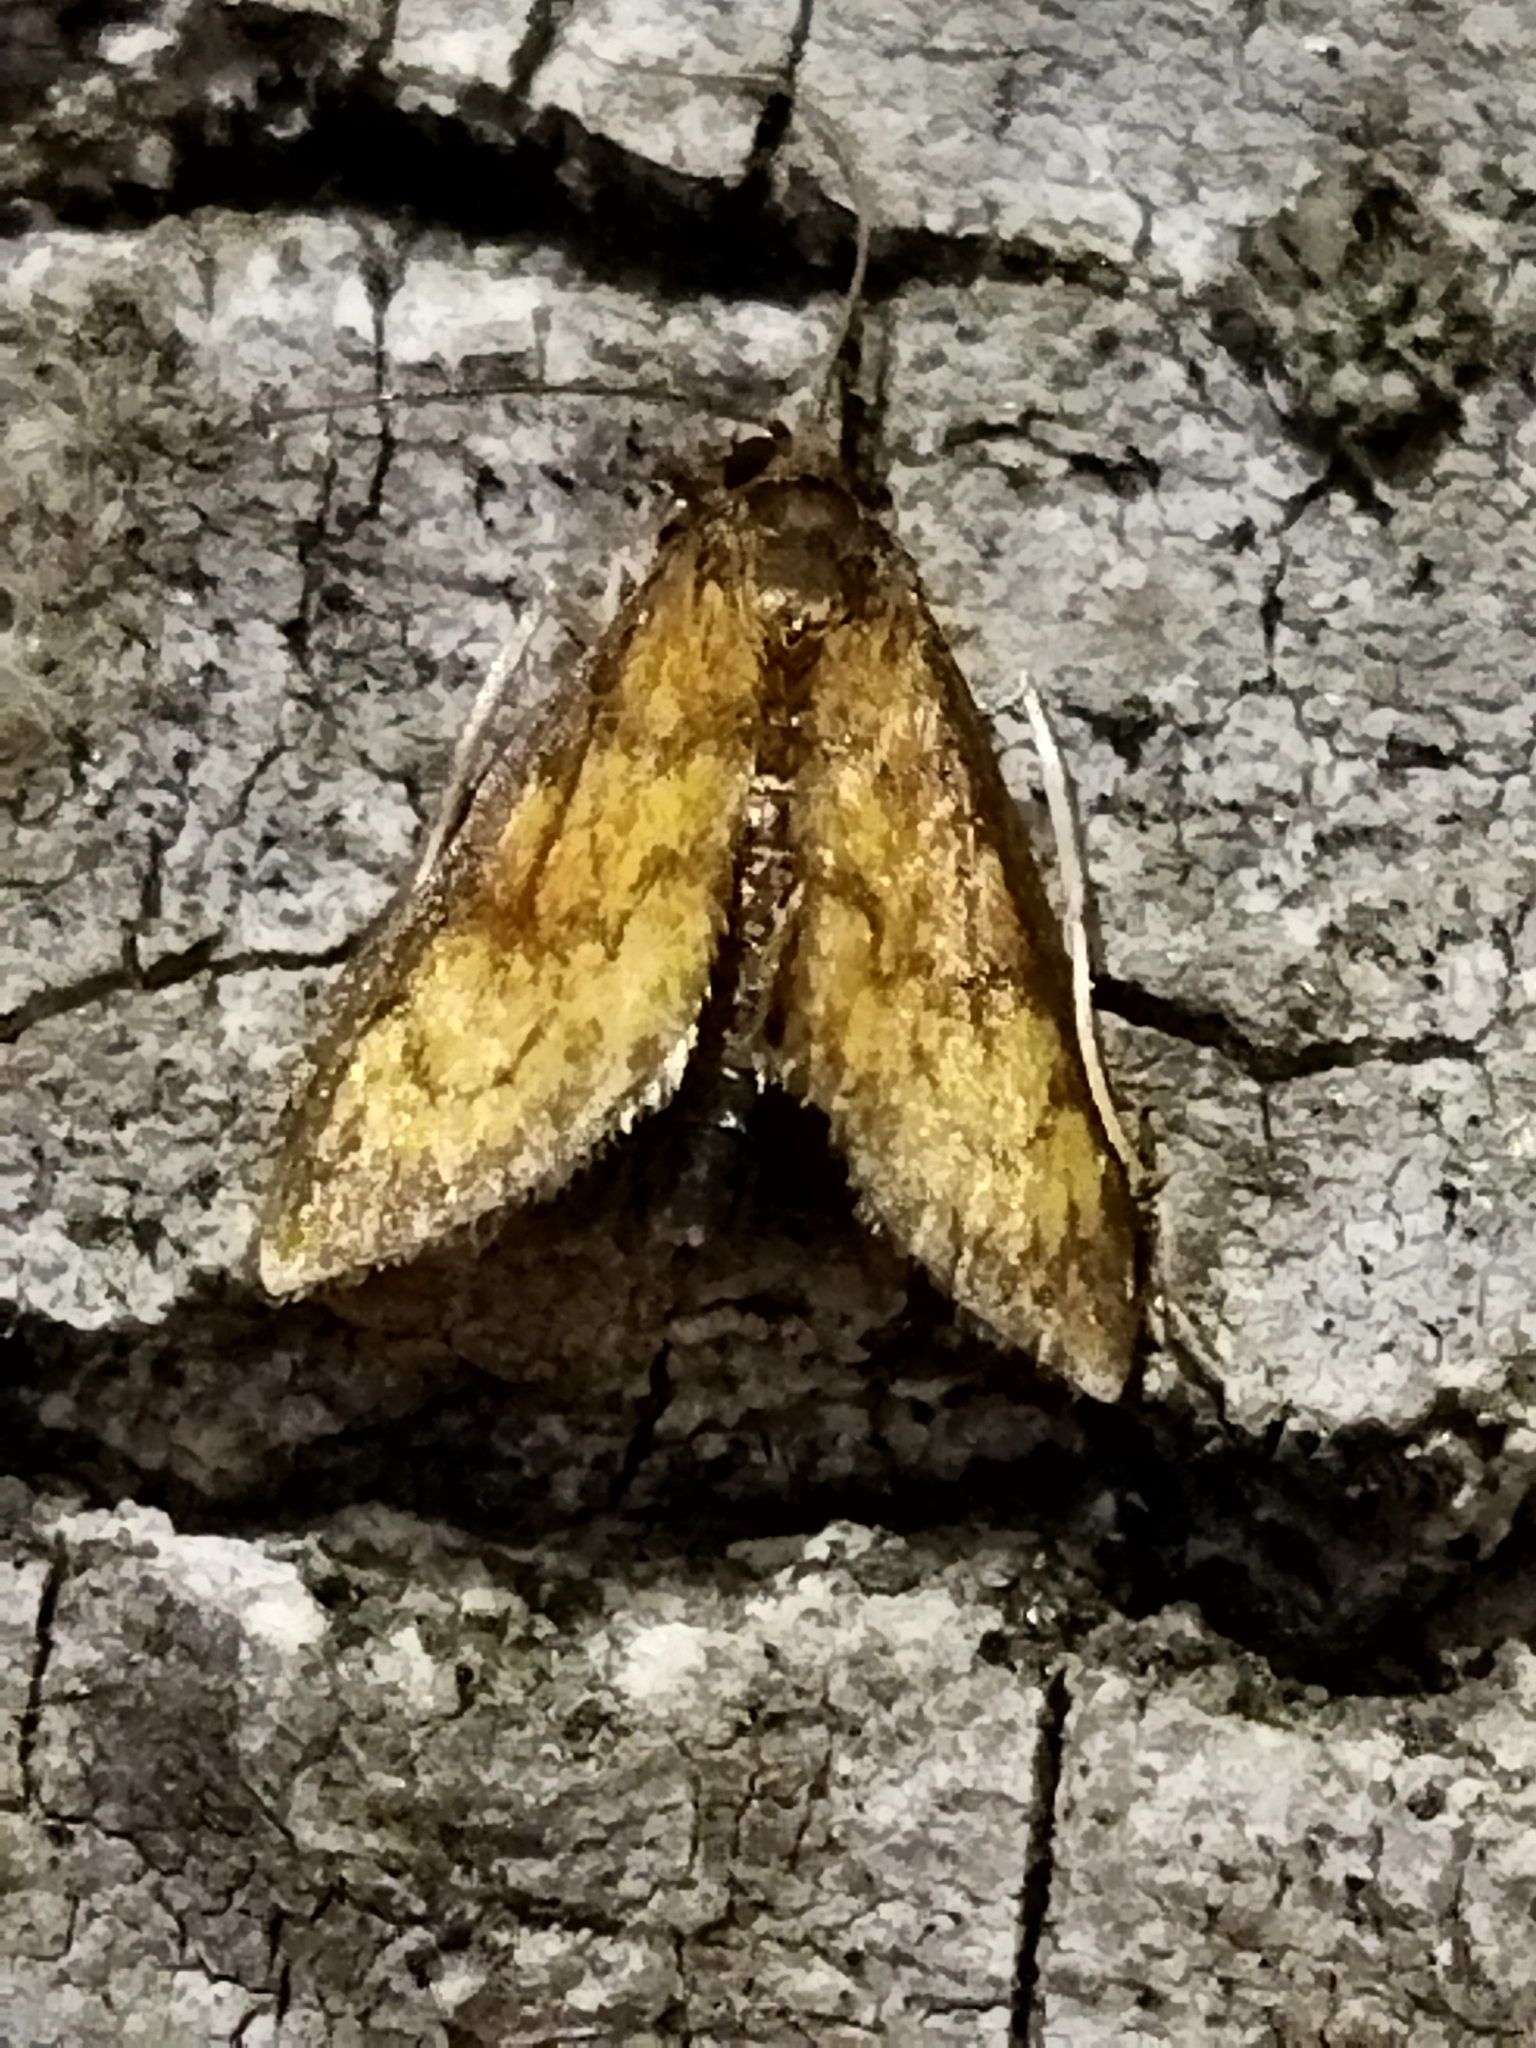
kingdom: Animalia
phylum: Arthropoda
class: Insecta
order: Lepidoptera
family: Crambidae
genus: Ecpyrrhorrhoe
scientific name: Ecpyrrhorrhoe rubiginalis
